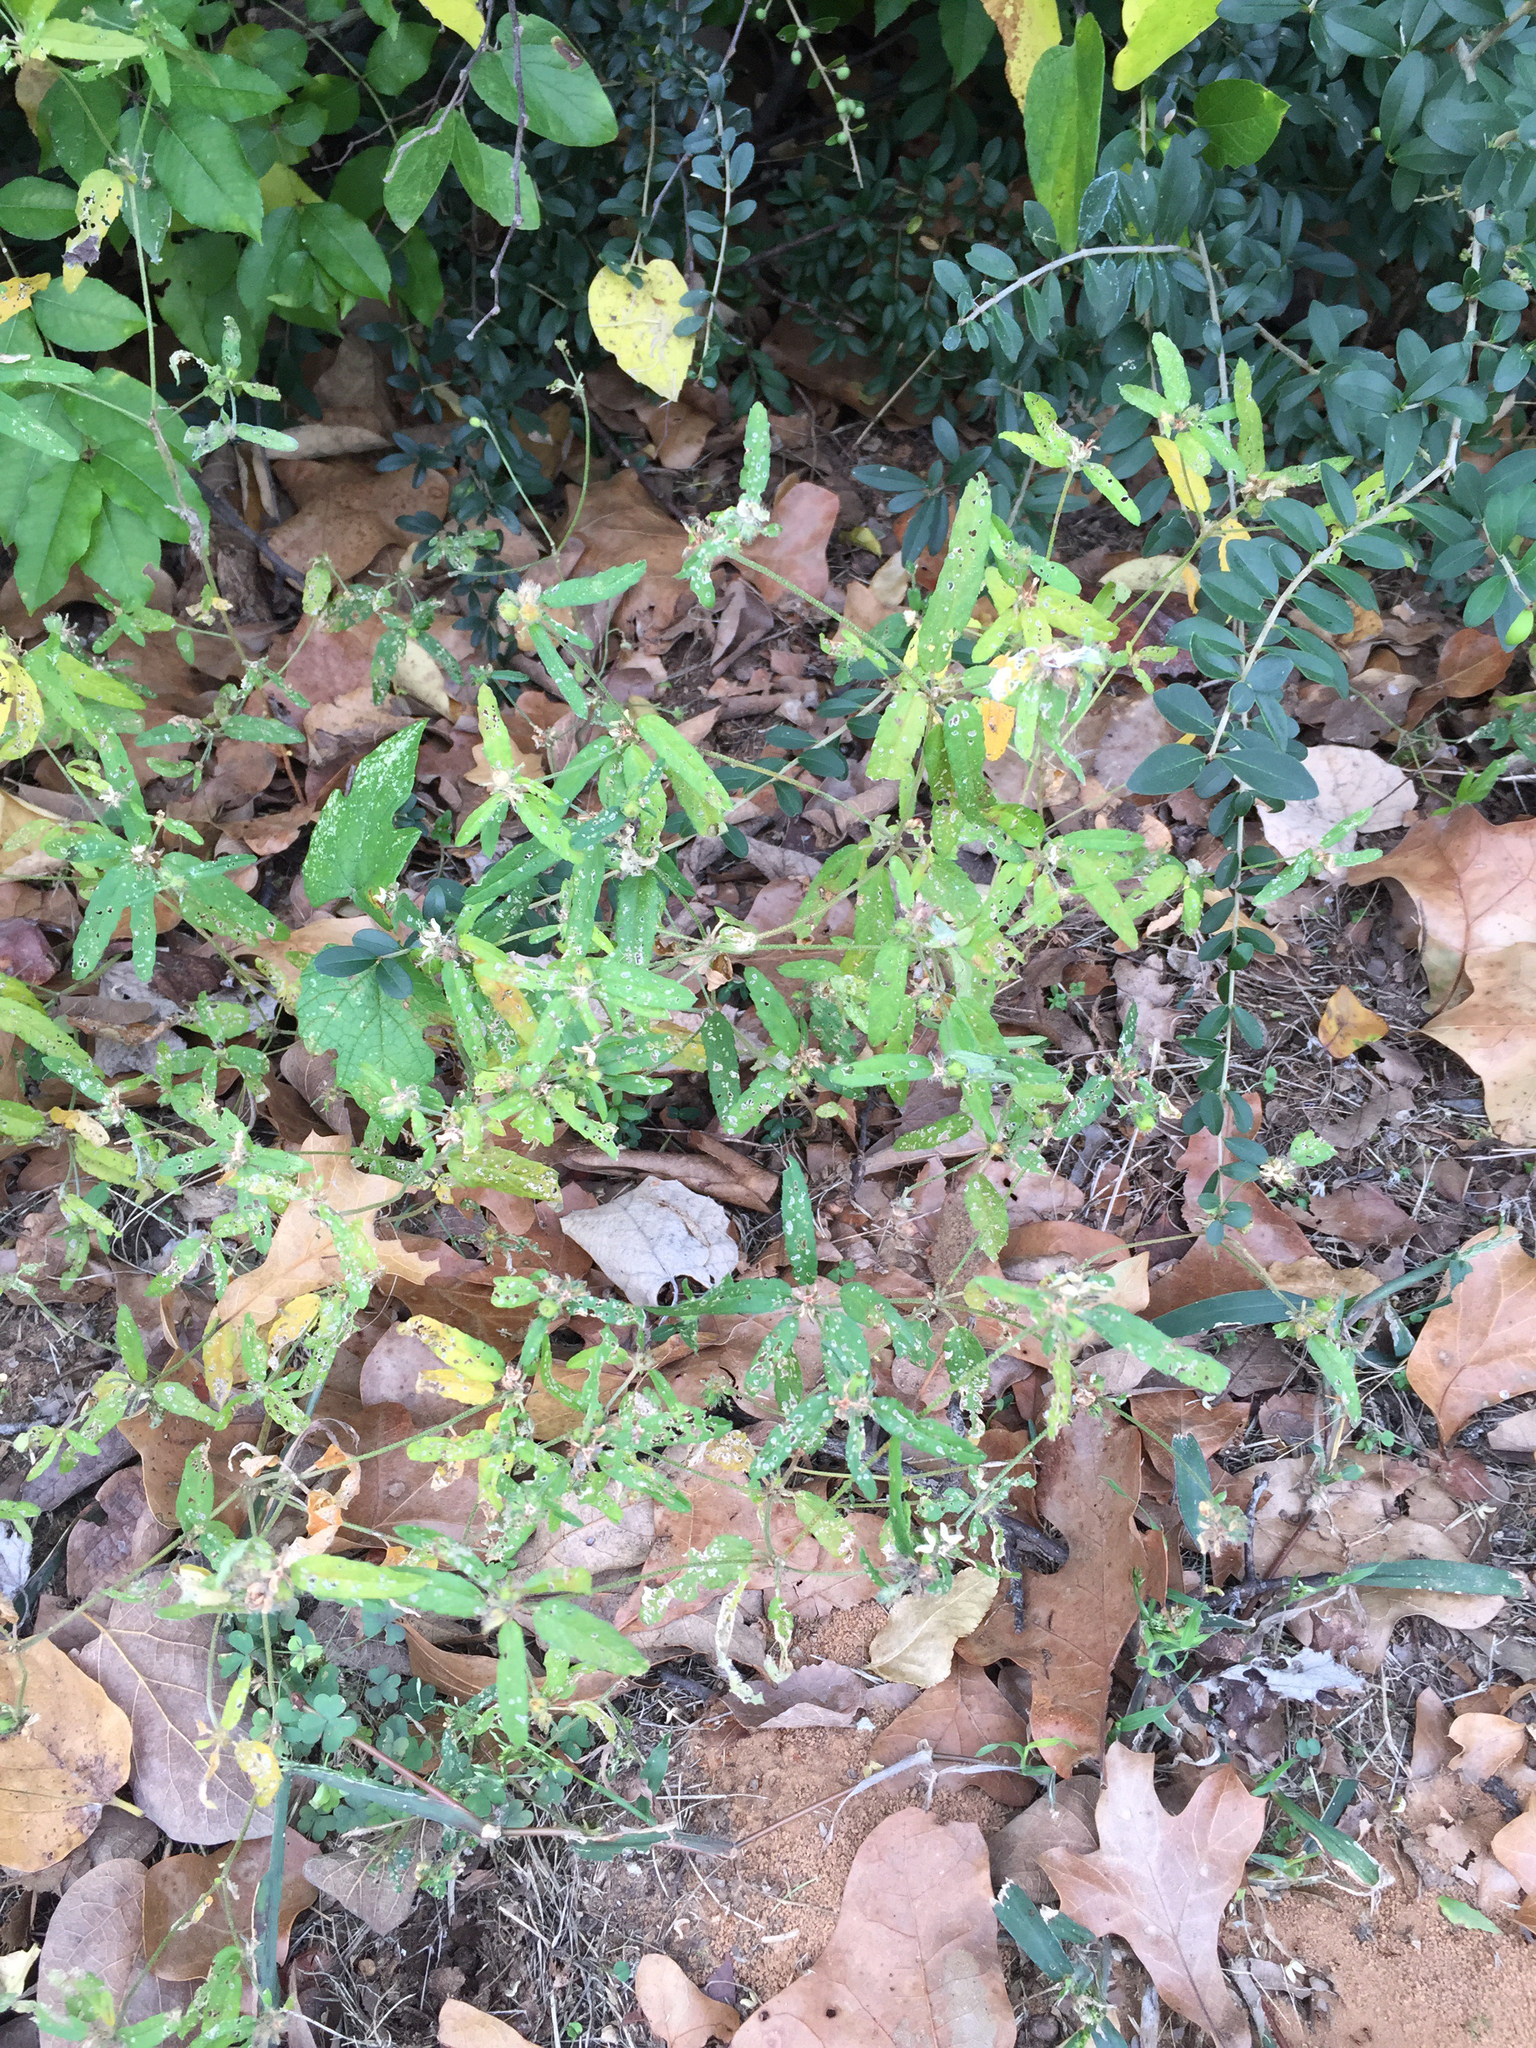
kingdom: Plantae
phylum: Tracheophyta
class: Magnoliopsida
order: Malpighiales
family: Euphorbiaceae
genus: Croton
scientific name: Croton glandulosus
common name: Tropic croton
